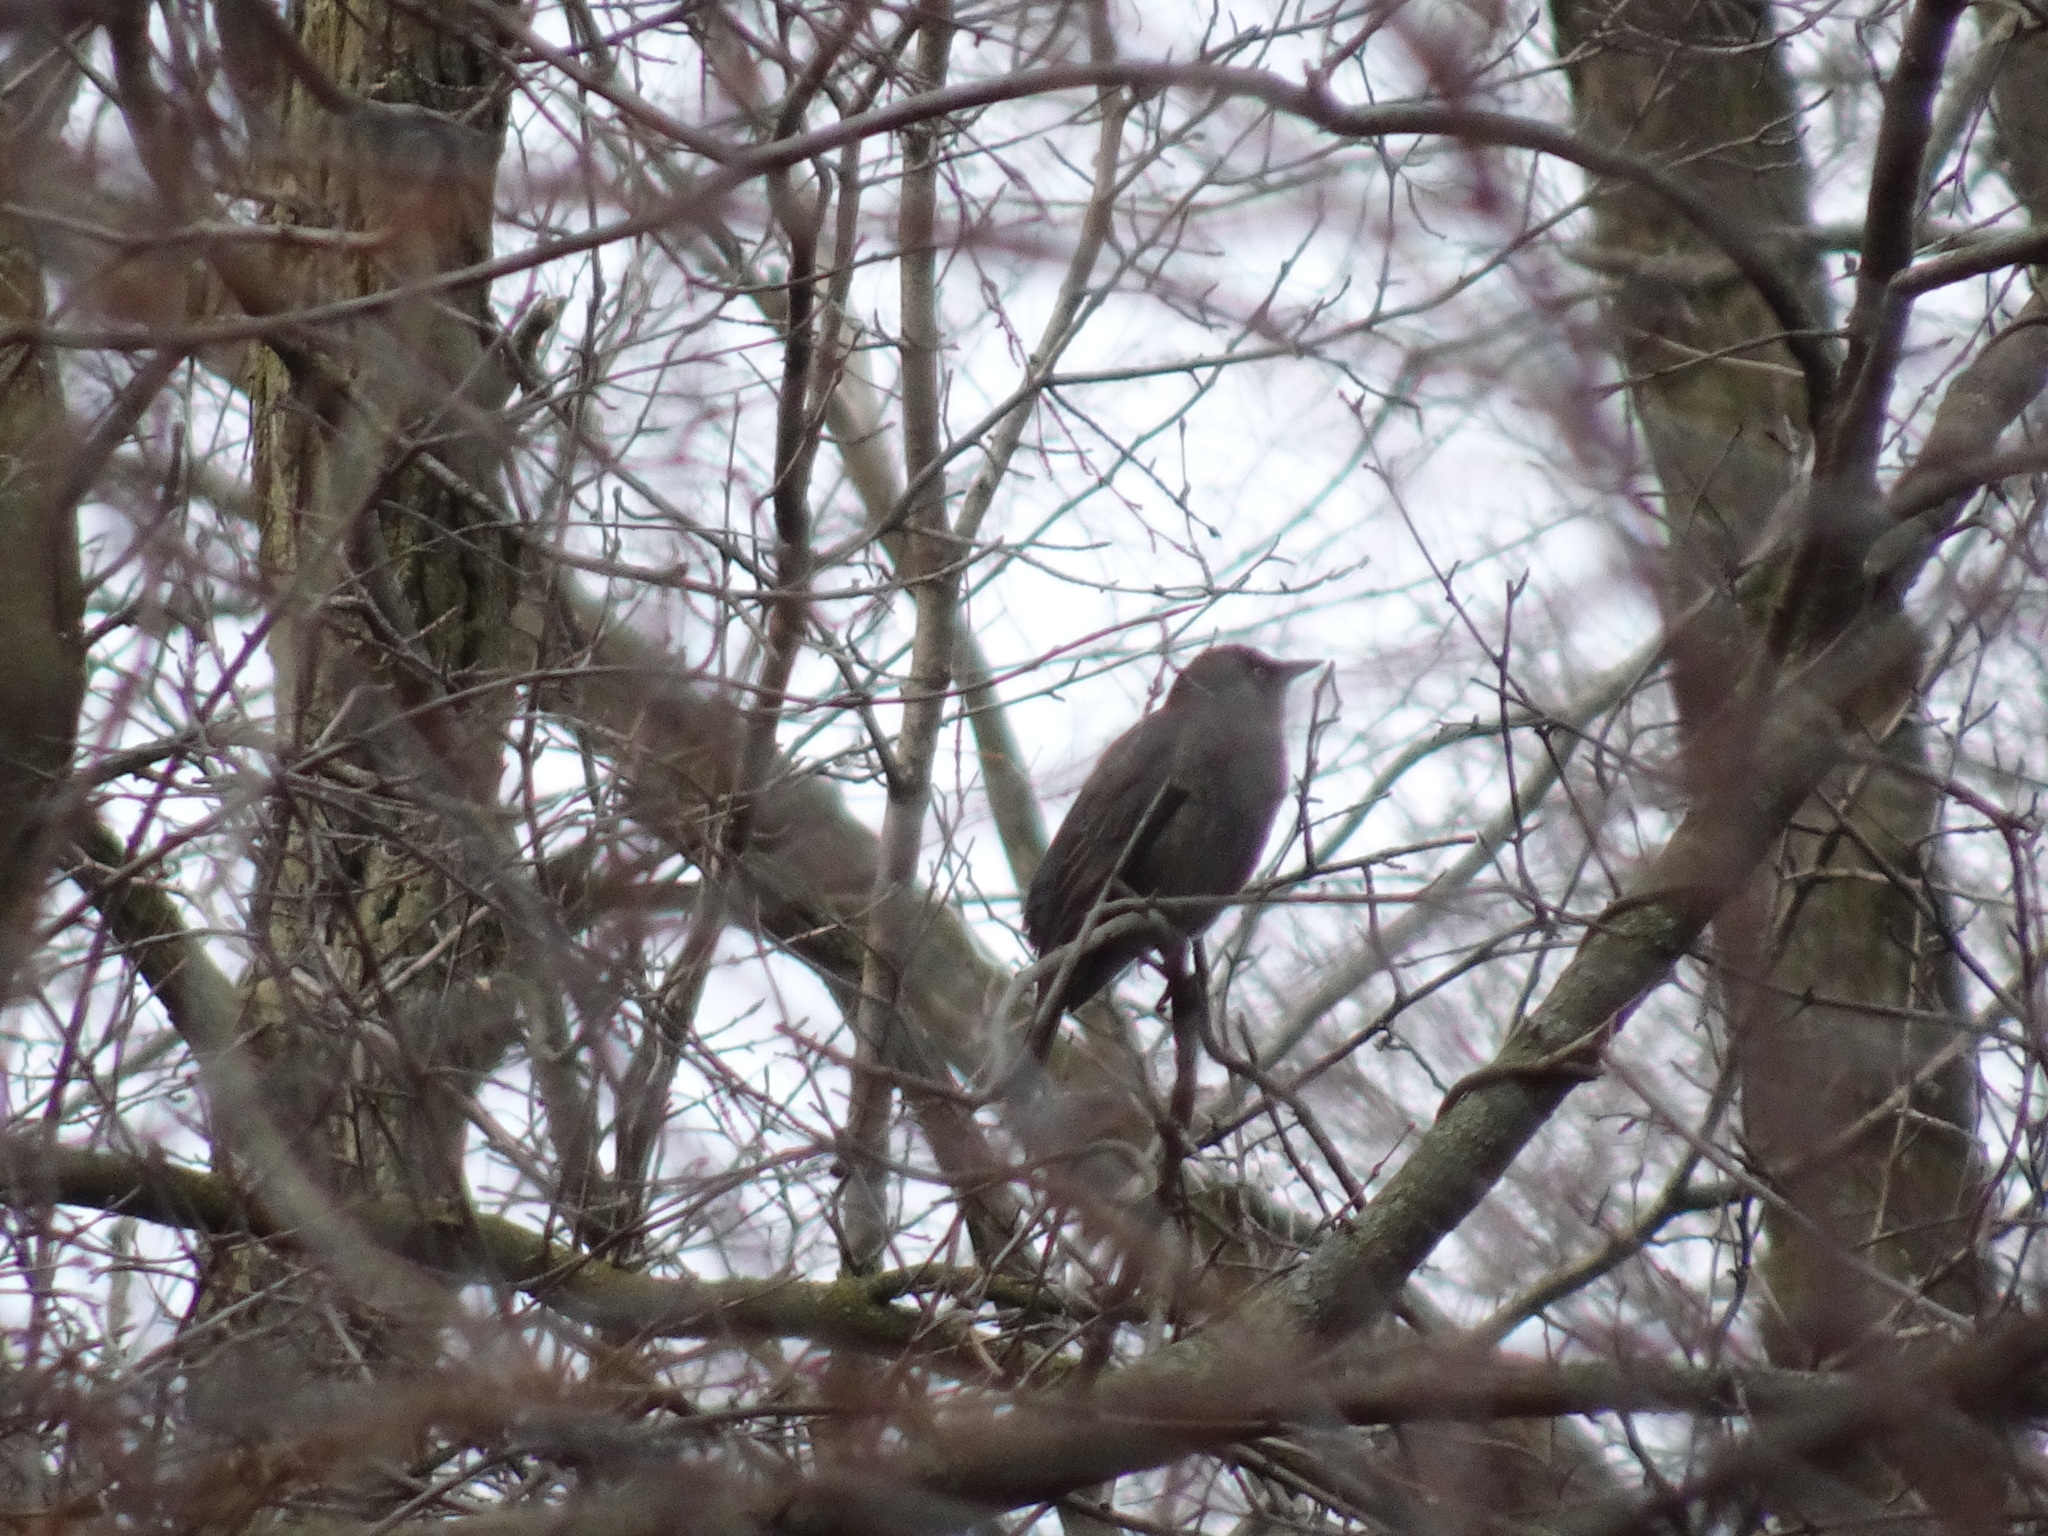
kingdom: Animalia
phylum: Chordata
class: Aves
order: Passeriformes
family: Icteridae
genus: Euphagus
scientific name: Euphagus carolinus
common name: Rusty blackbird
